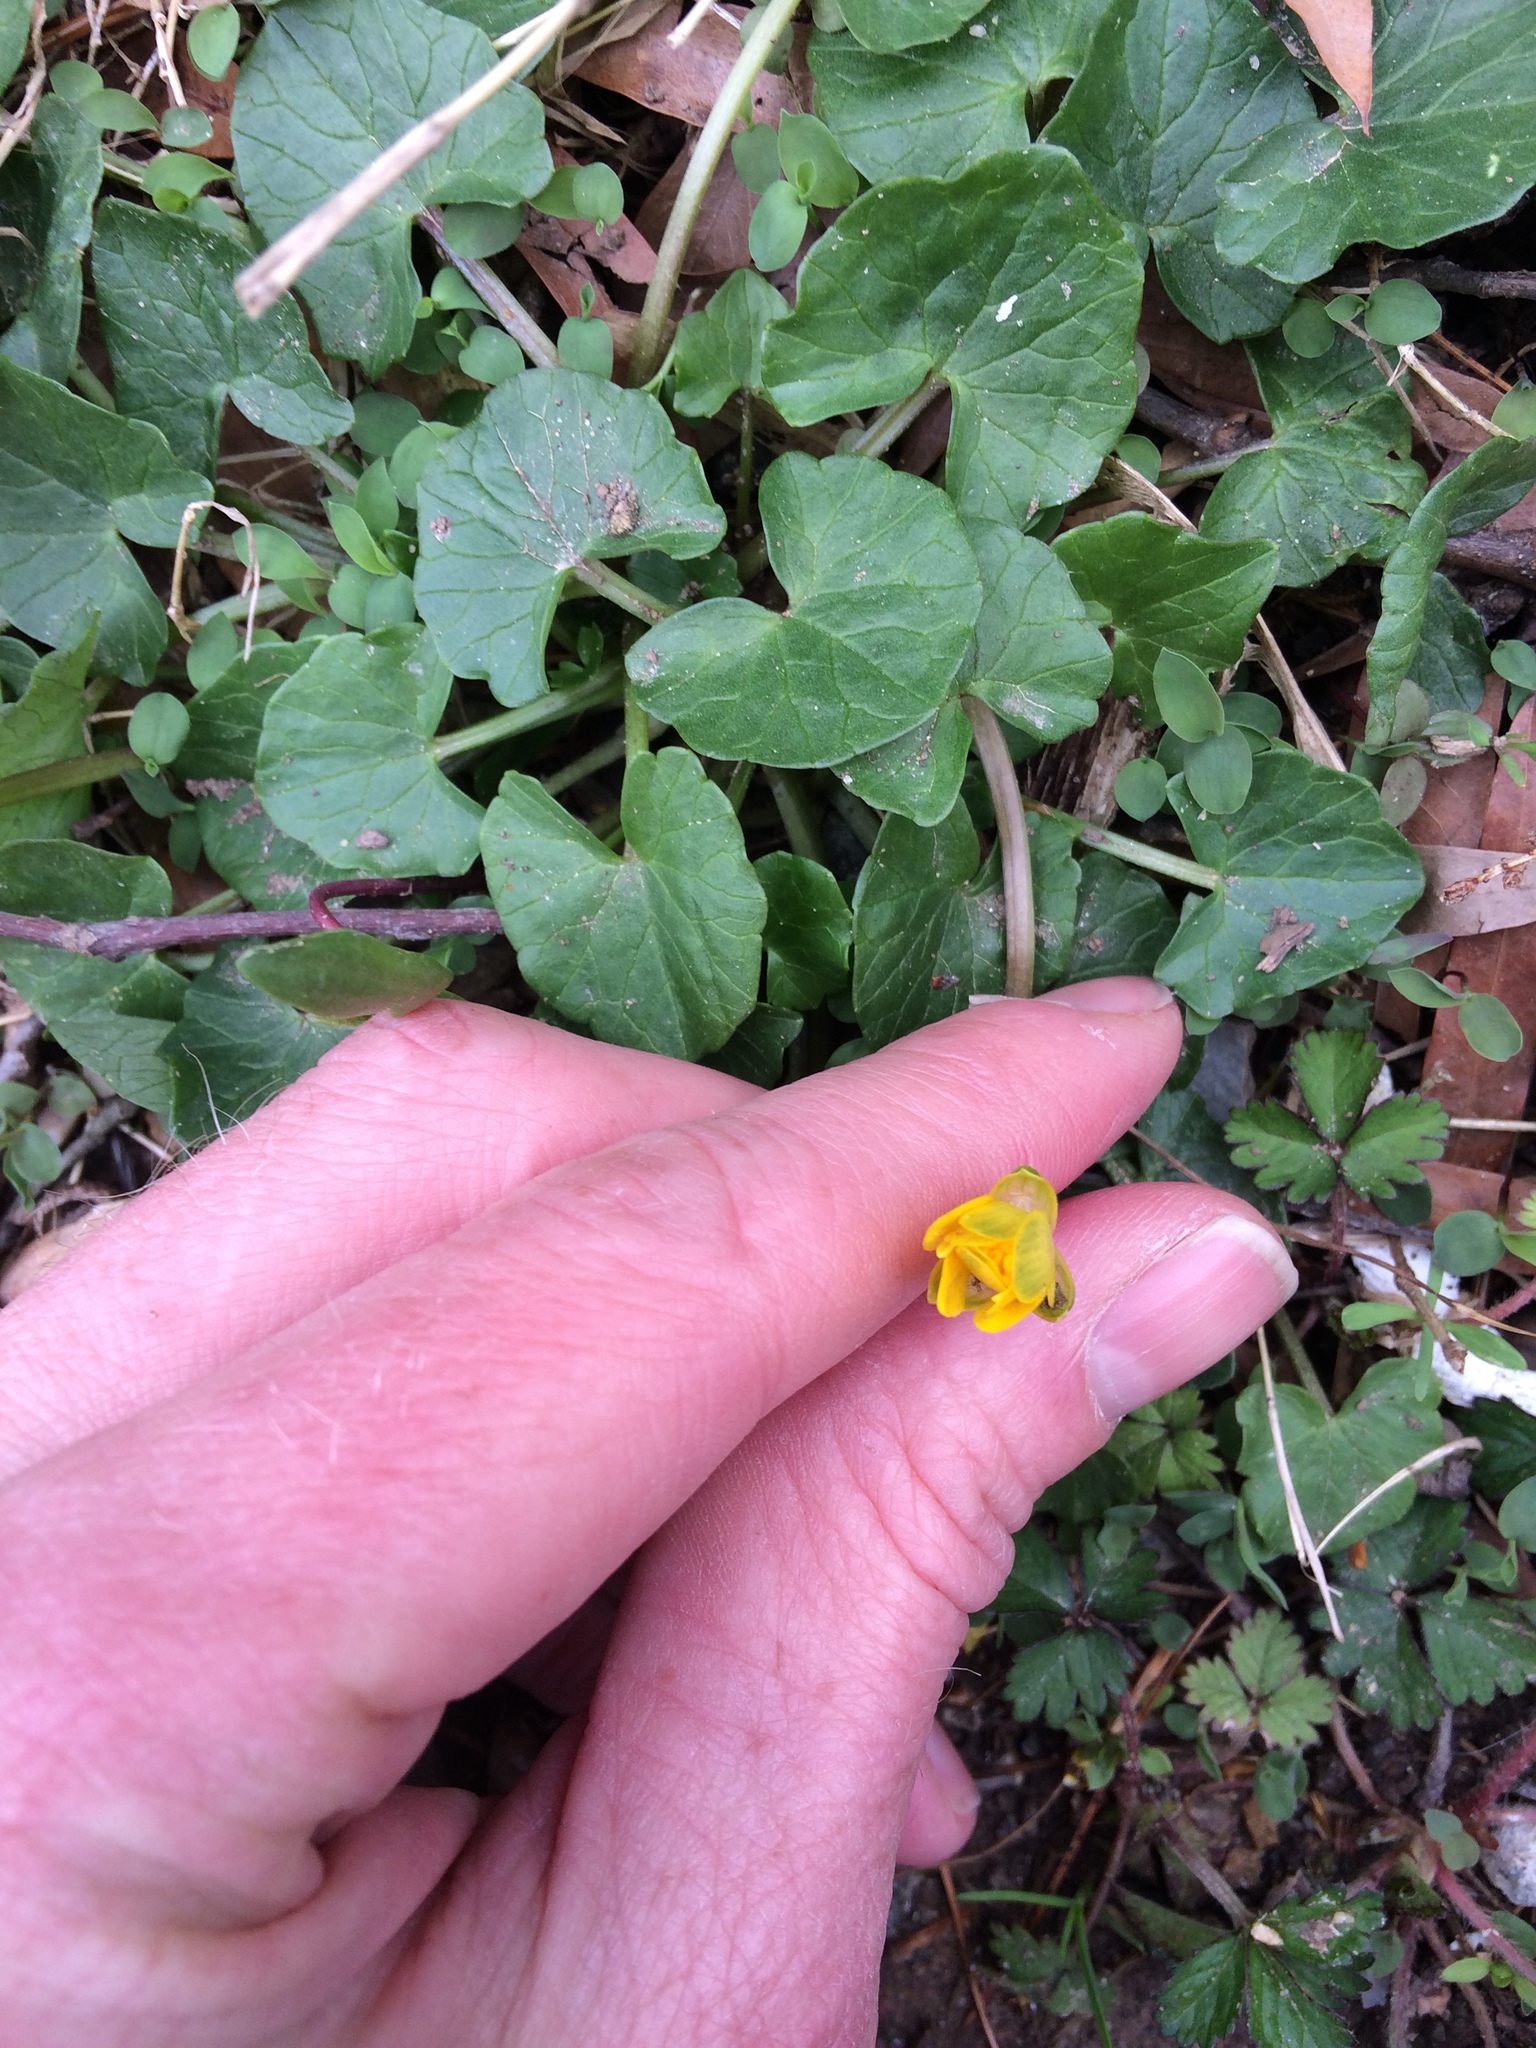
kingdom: Plantae
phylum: Tracheophyta
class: Magnoliopsida
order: Ranunculales
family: Ranunculaceae
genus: Ficaria
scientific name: Ficaria verna
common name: Lesser celandine
